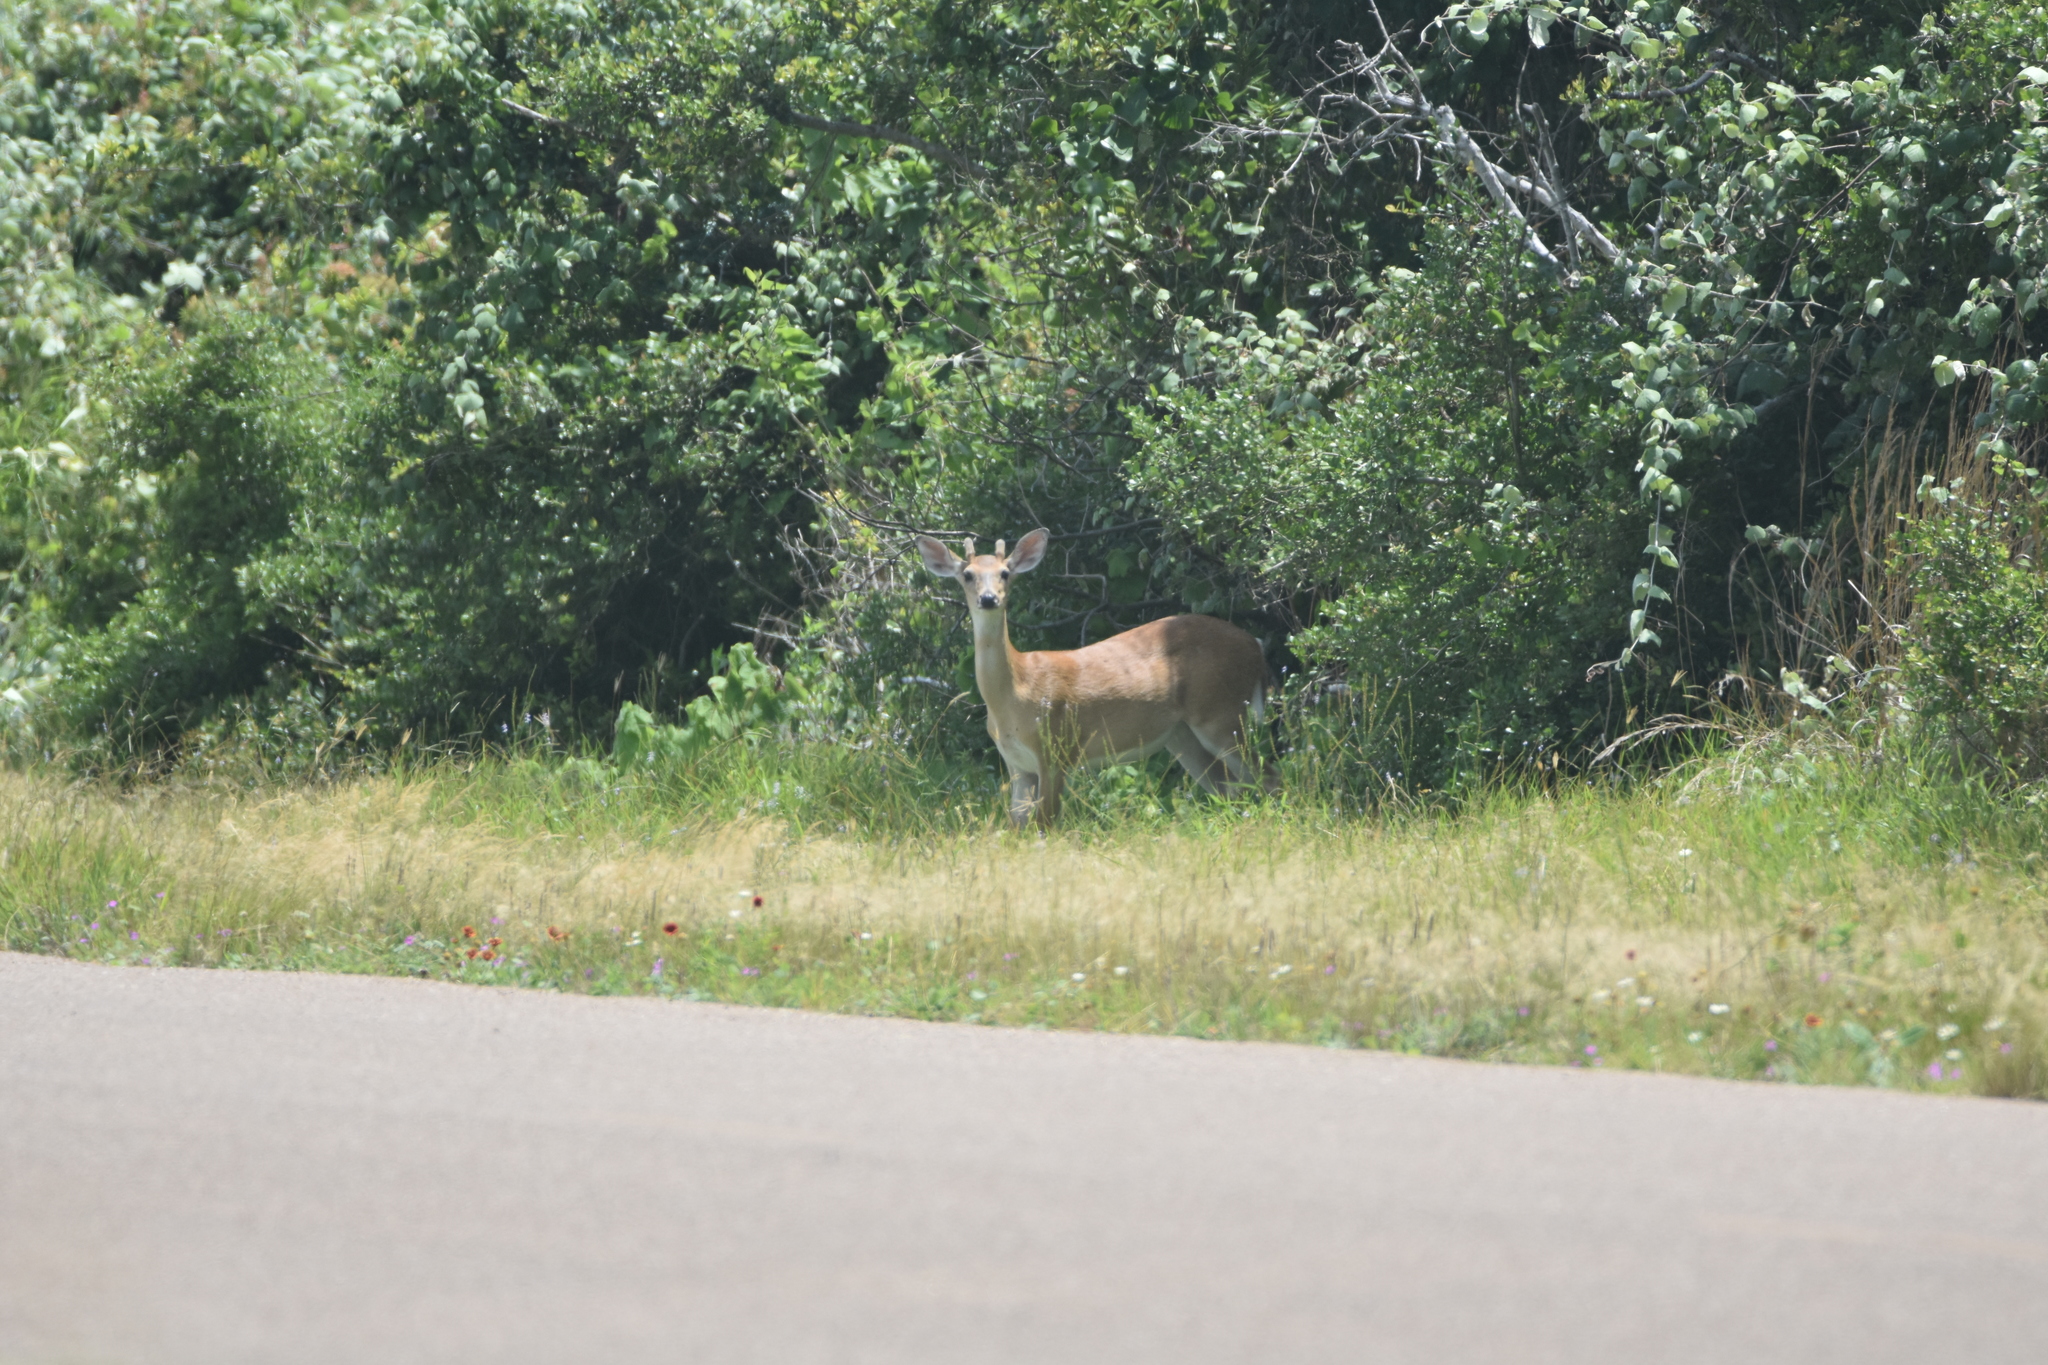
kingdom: Animalia
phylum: Chordata
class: Mammalia
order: Artiodactyla
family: Cervidae
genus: Odocoileus
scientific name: Odocoileus virginianus
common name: White-tailed deer
